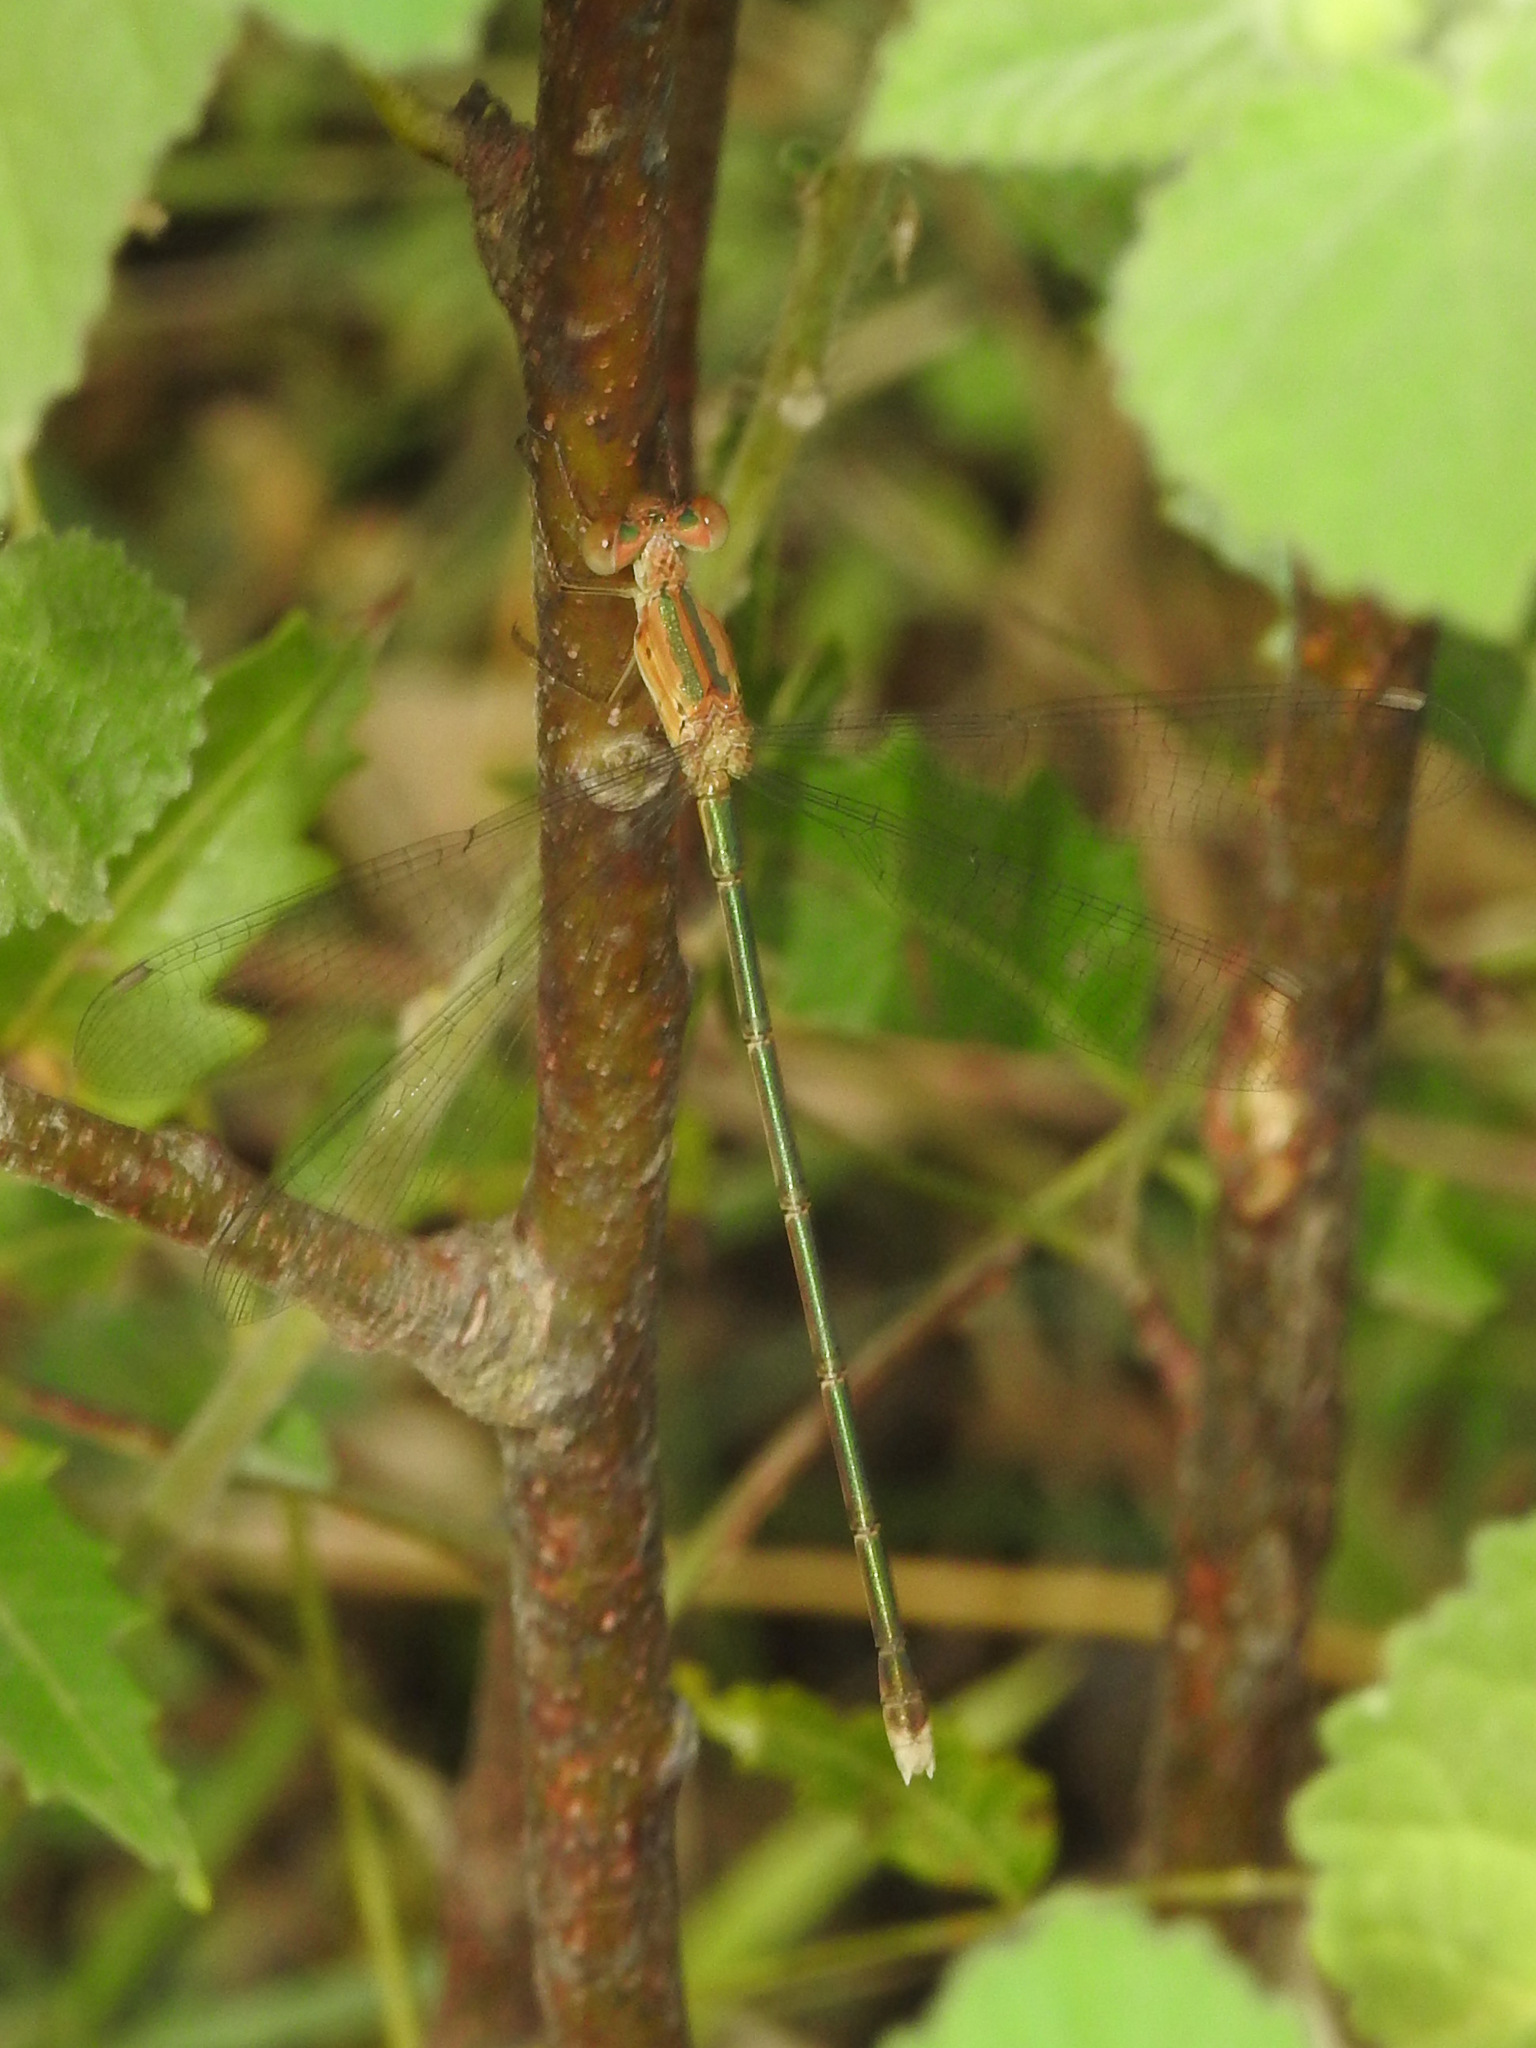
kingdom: Animalia
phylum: Arthropoda
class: Insecta
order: Odonata
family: Lestidae
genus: Lestes
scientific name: Lestes elatus
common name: Emerald spreadwing
